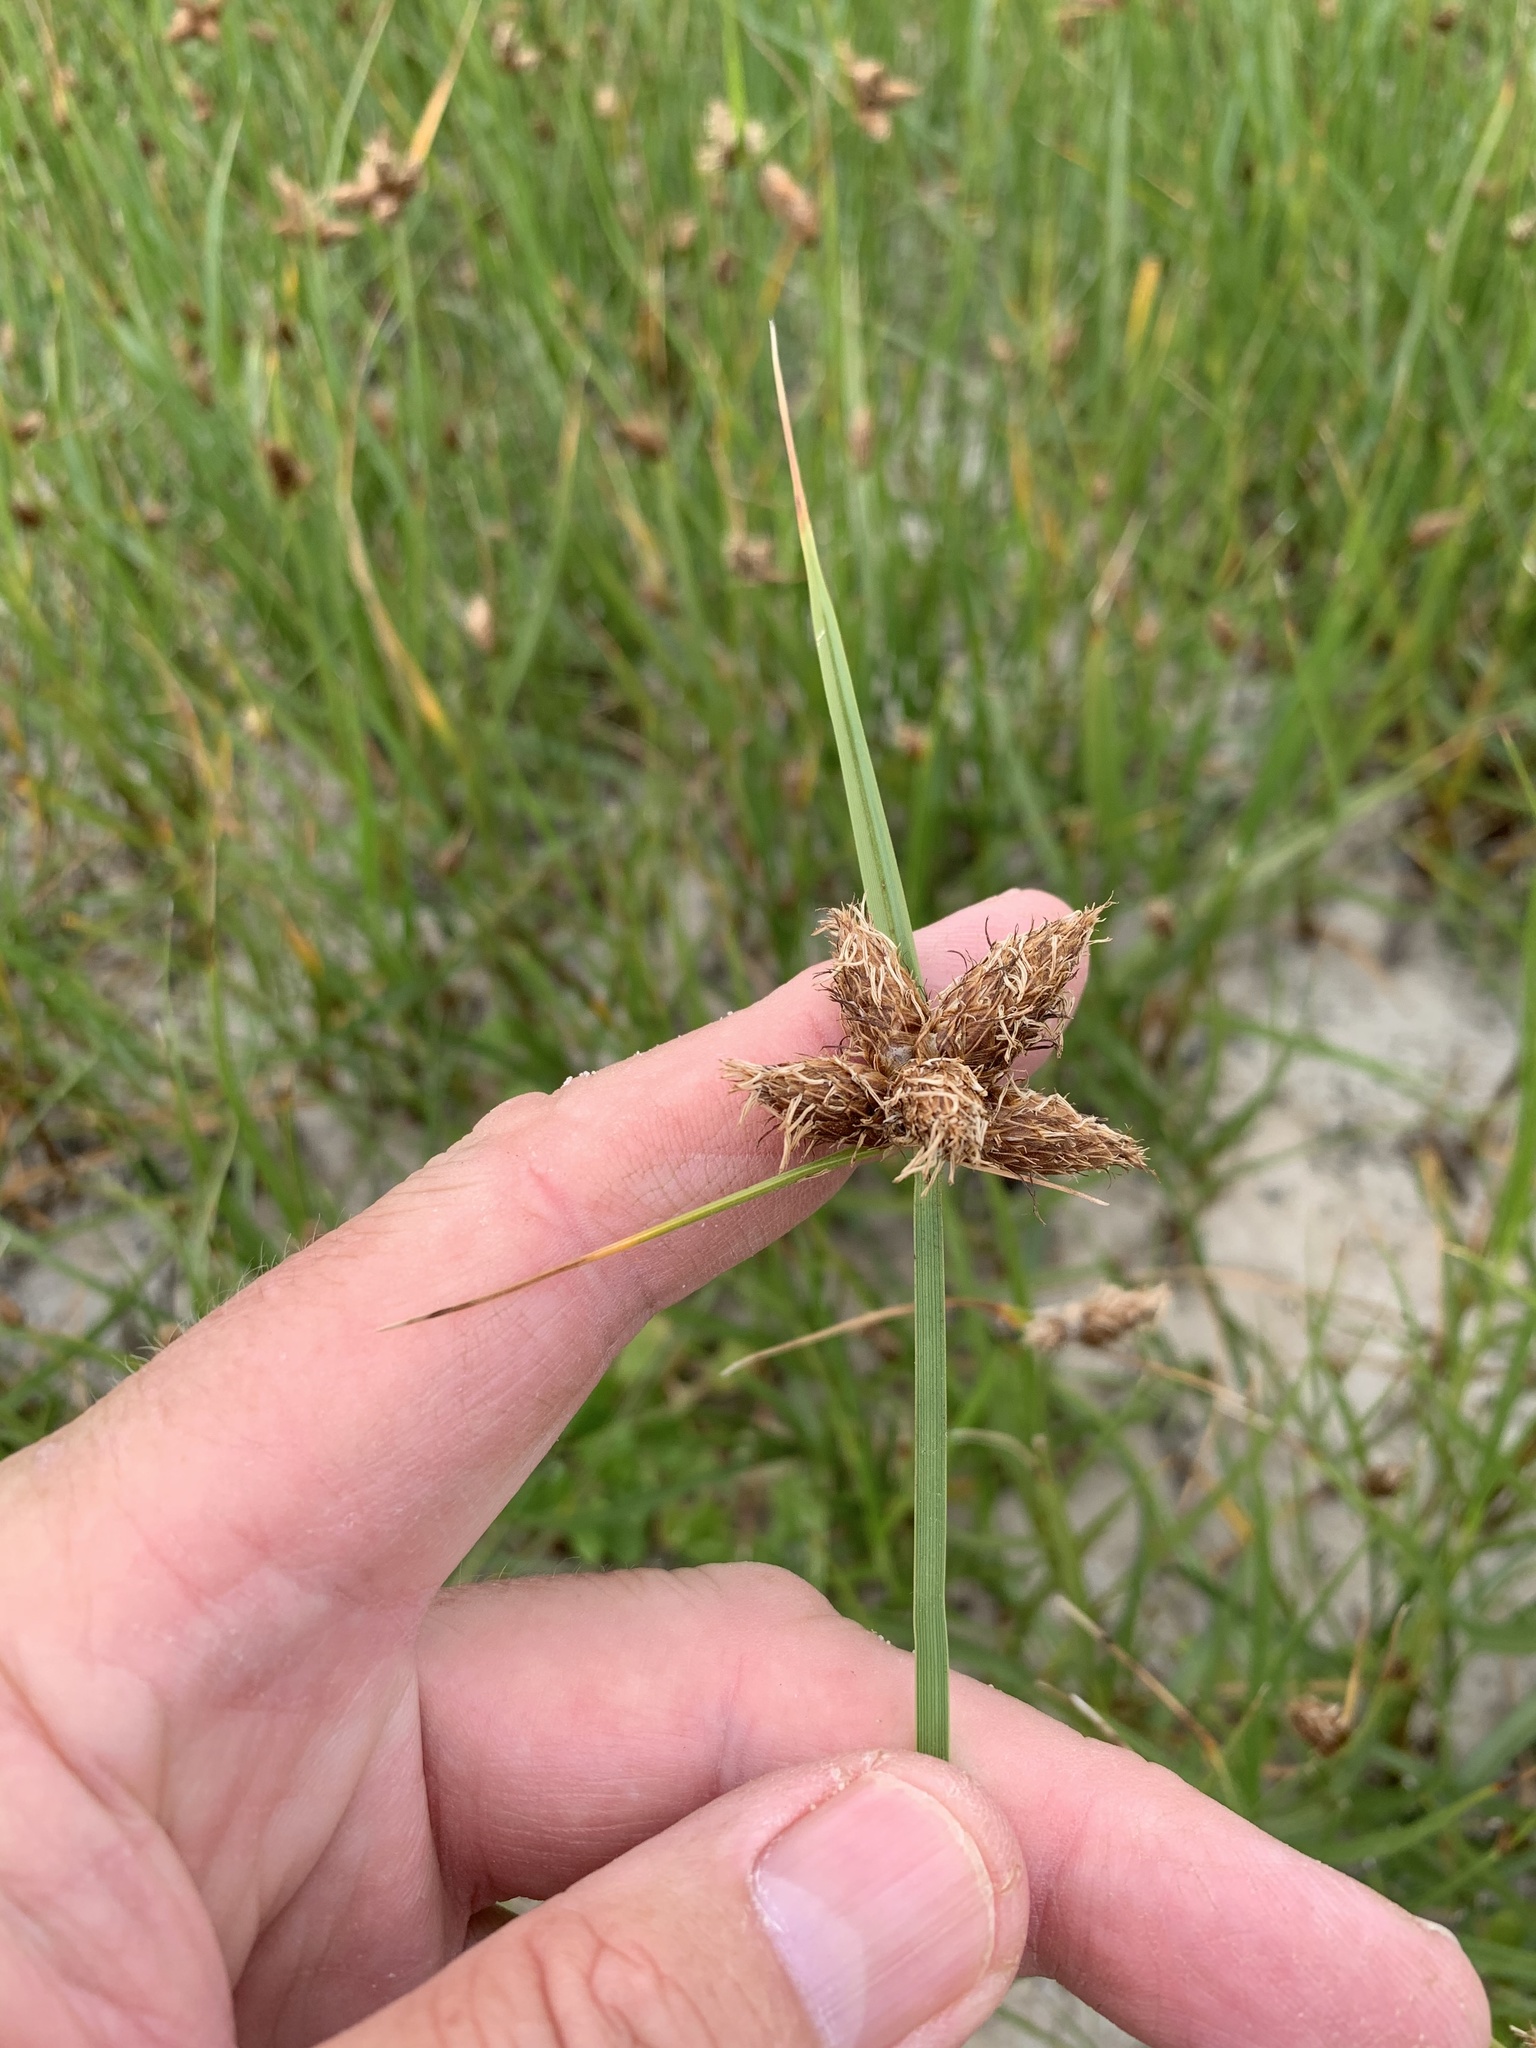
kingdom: Plantae
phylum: Tracheophyta
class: Liliopsida
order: Poales
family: Cyperaceae
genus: Bolboschoenus
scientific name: Bolboschoenus maritimus
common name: Sea club-rush
